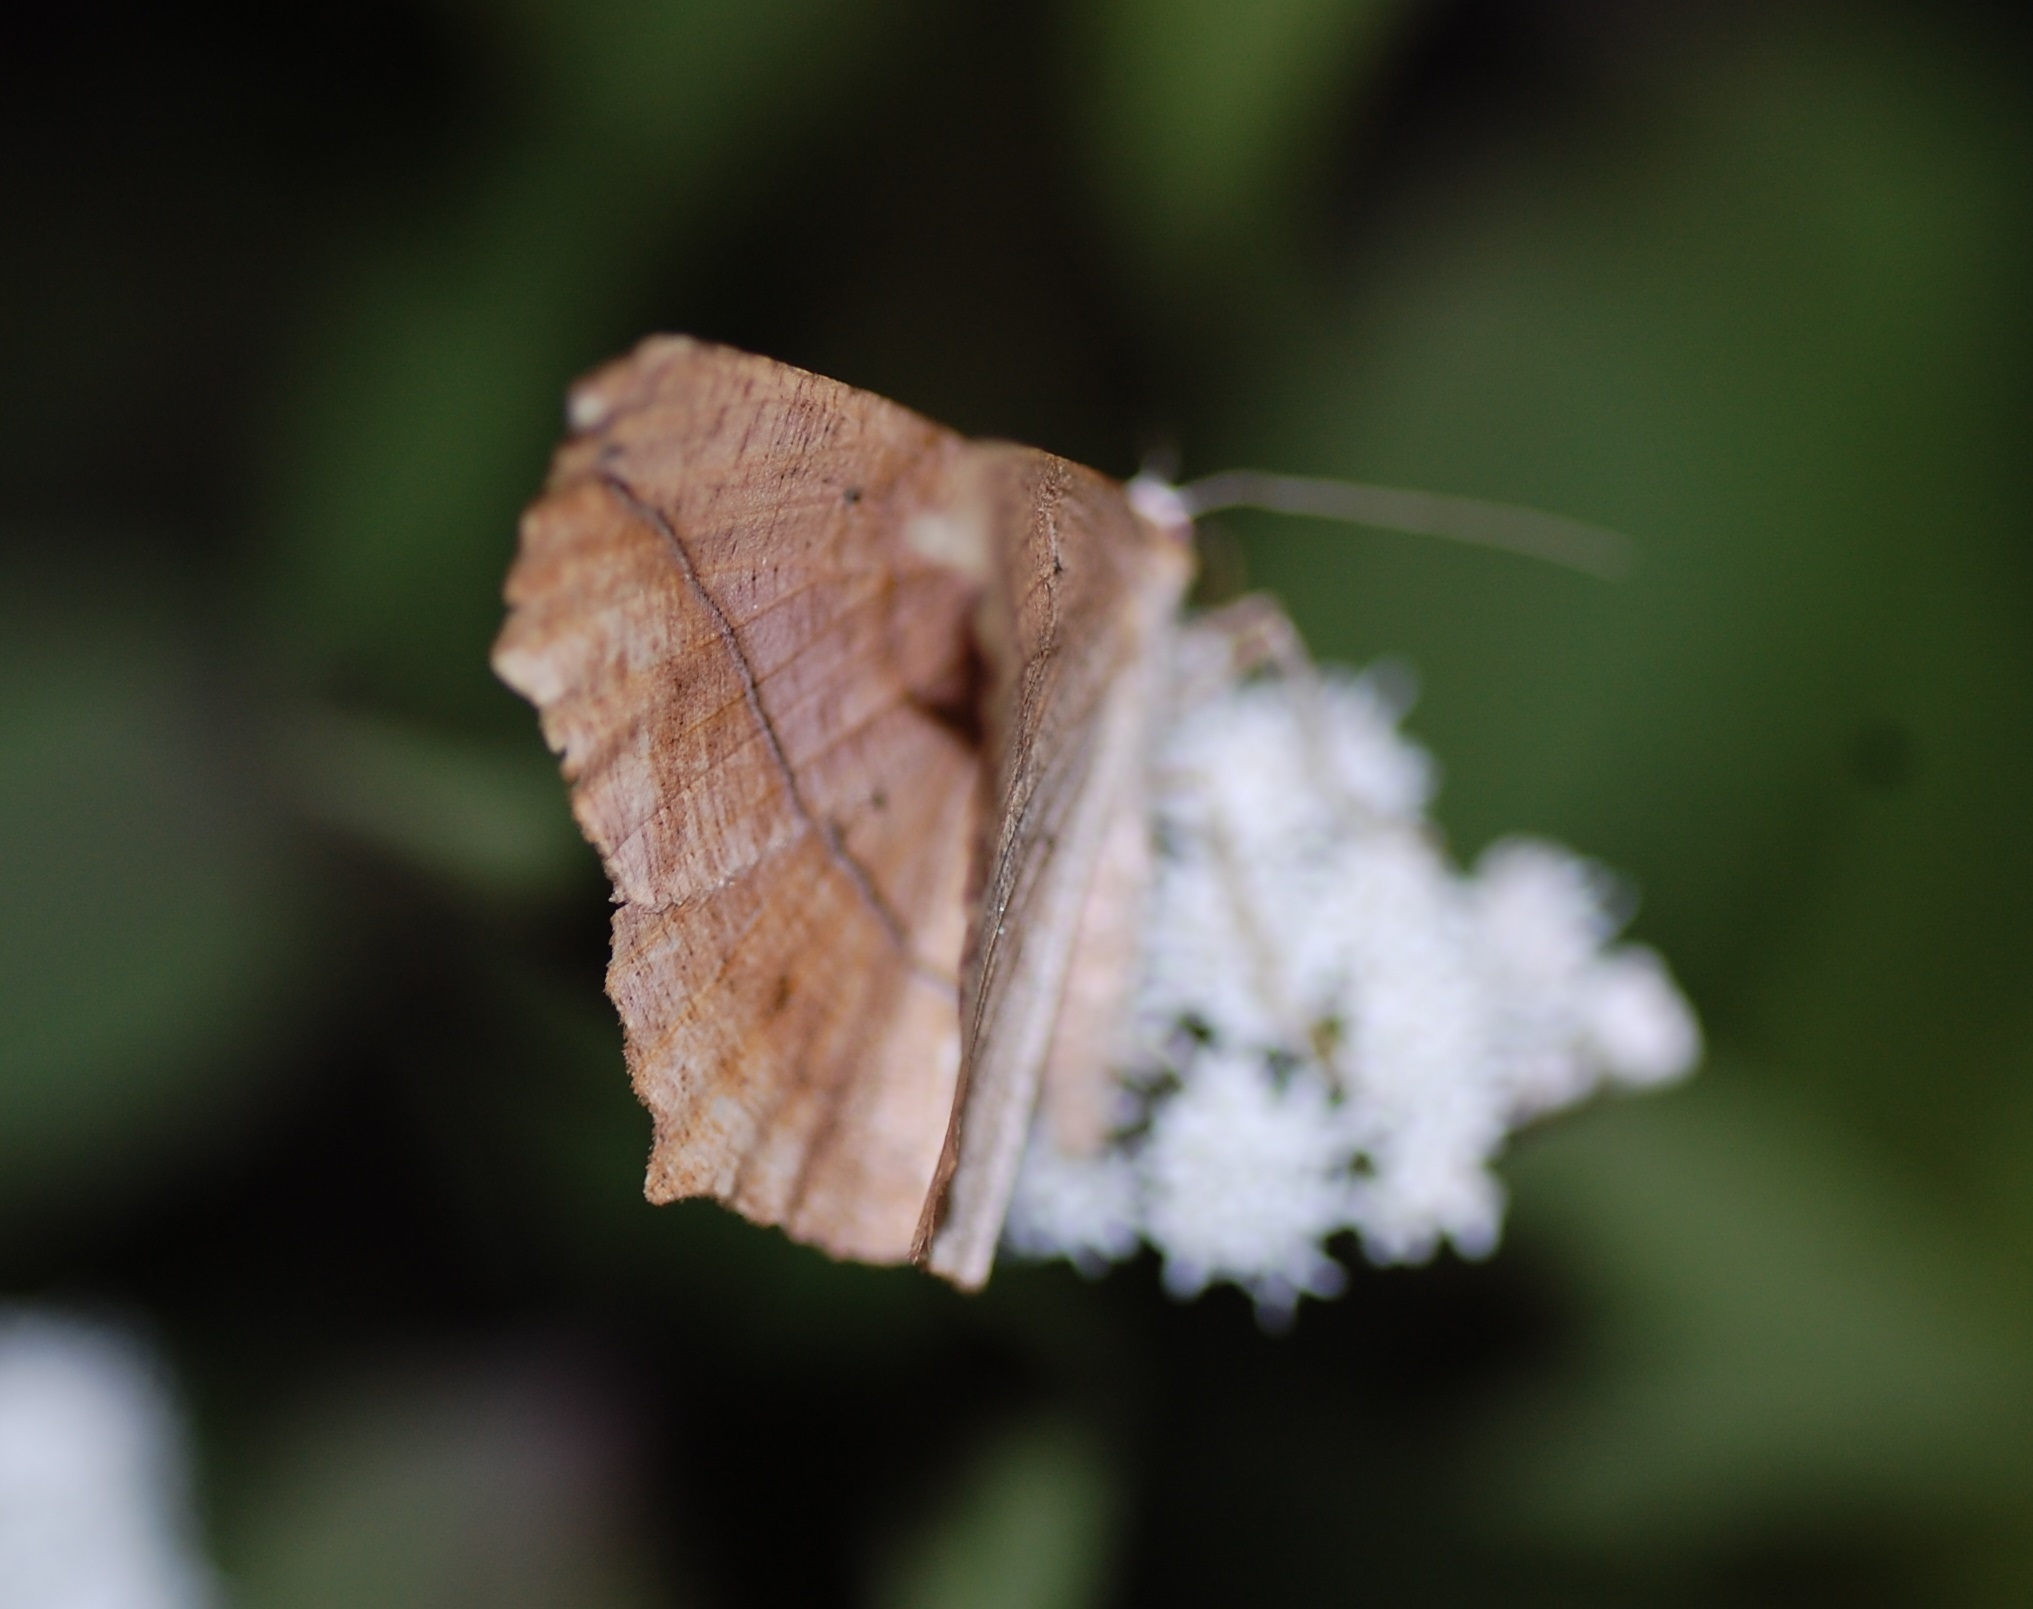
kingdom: Animalia
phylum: Arthropoda
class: Insecta
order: Lepidoptera
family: Geometridae
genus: Prochoerodes
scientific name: Prochoerodes lineola
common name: Large maple spanworm
